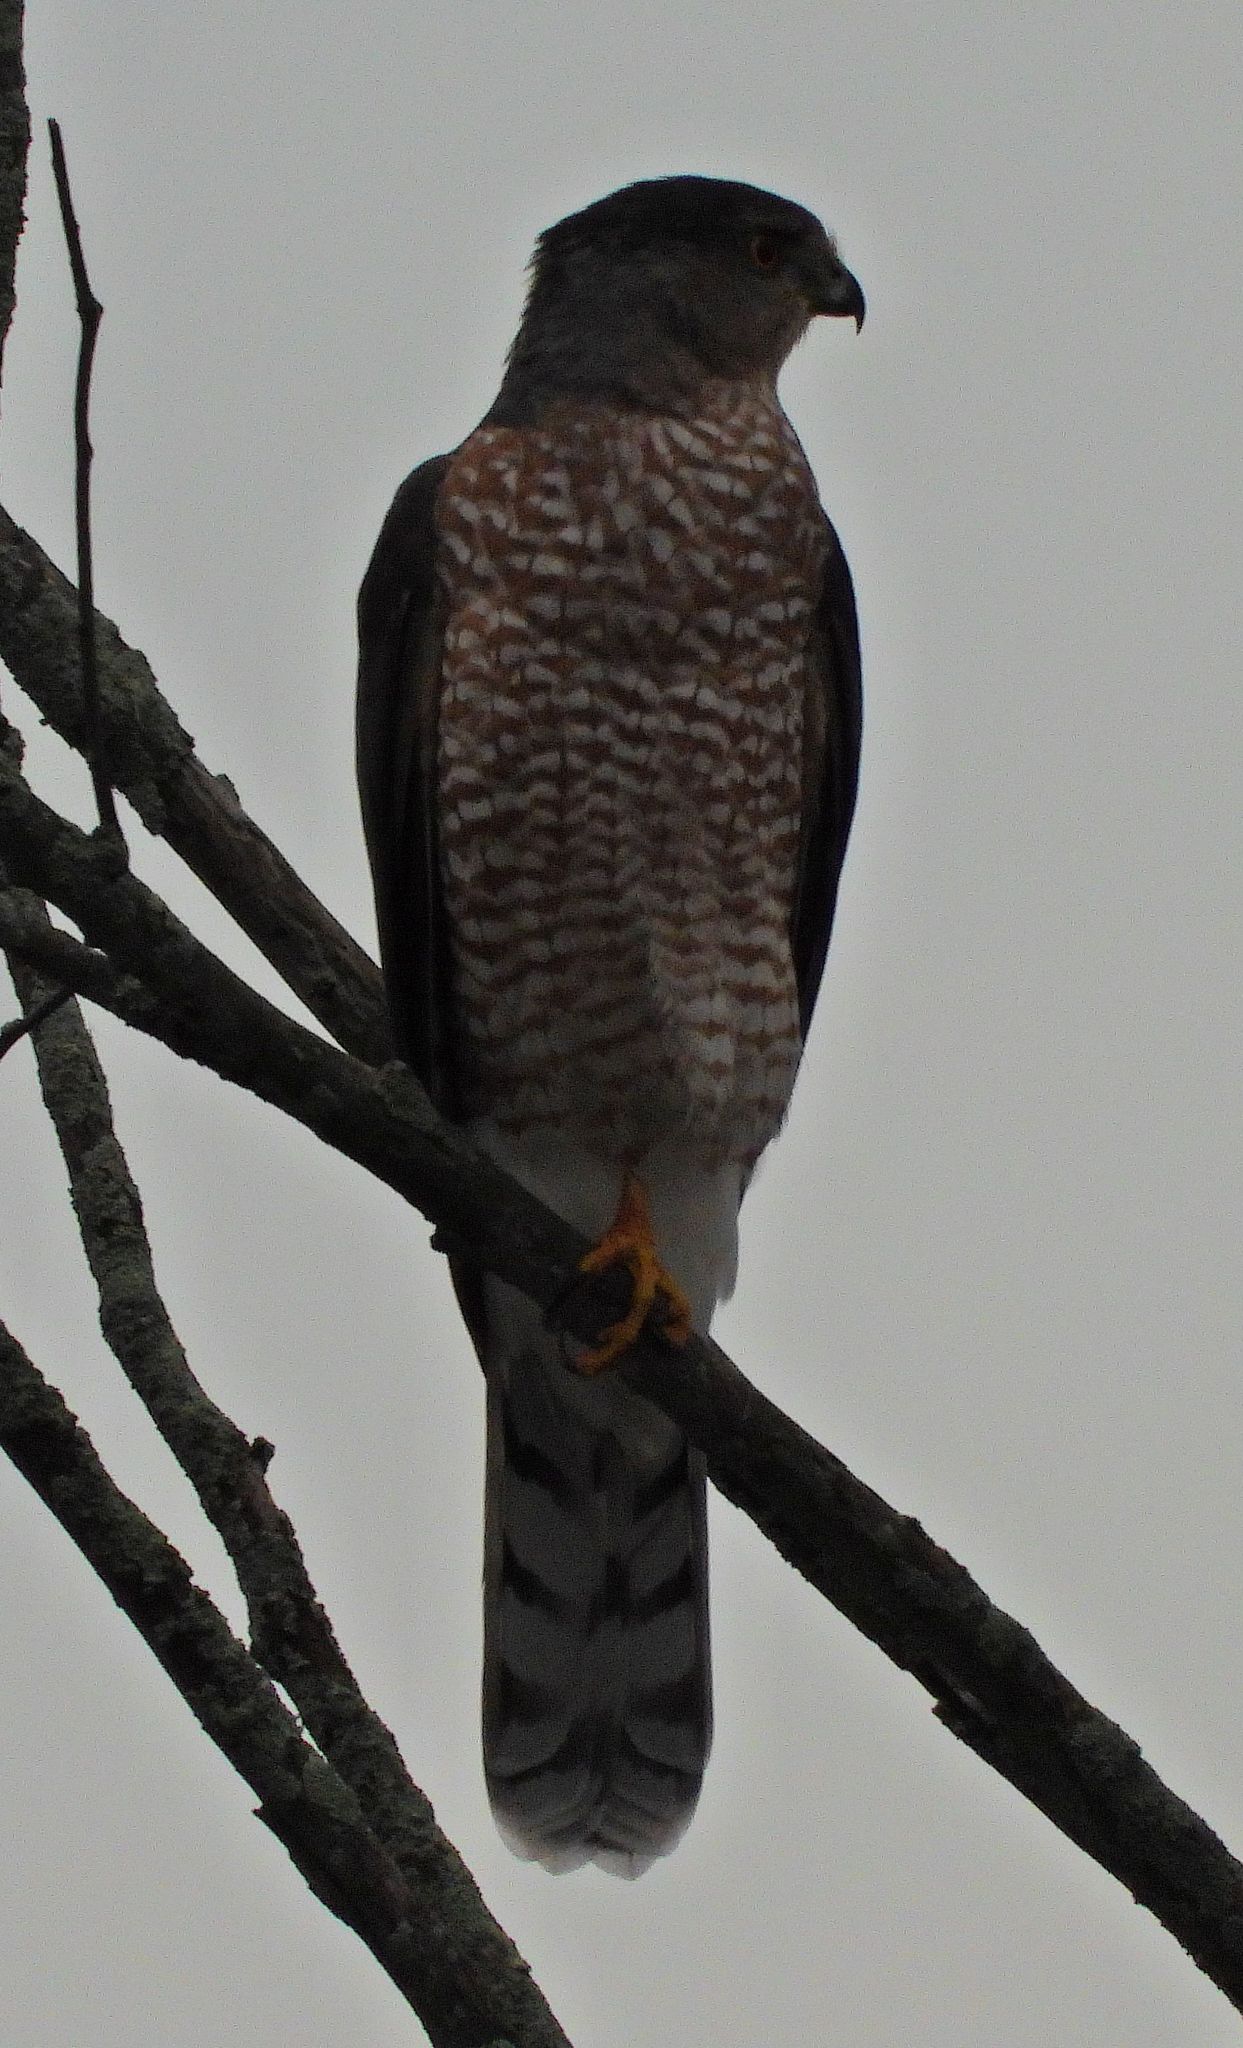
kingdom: Animalia
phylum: Chordata
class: Aves
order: Accipitriformes
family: Accipitridae
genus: Accipiter
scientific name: Accipiter cooperii
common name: Cooper's hawk
